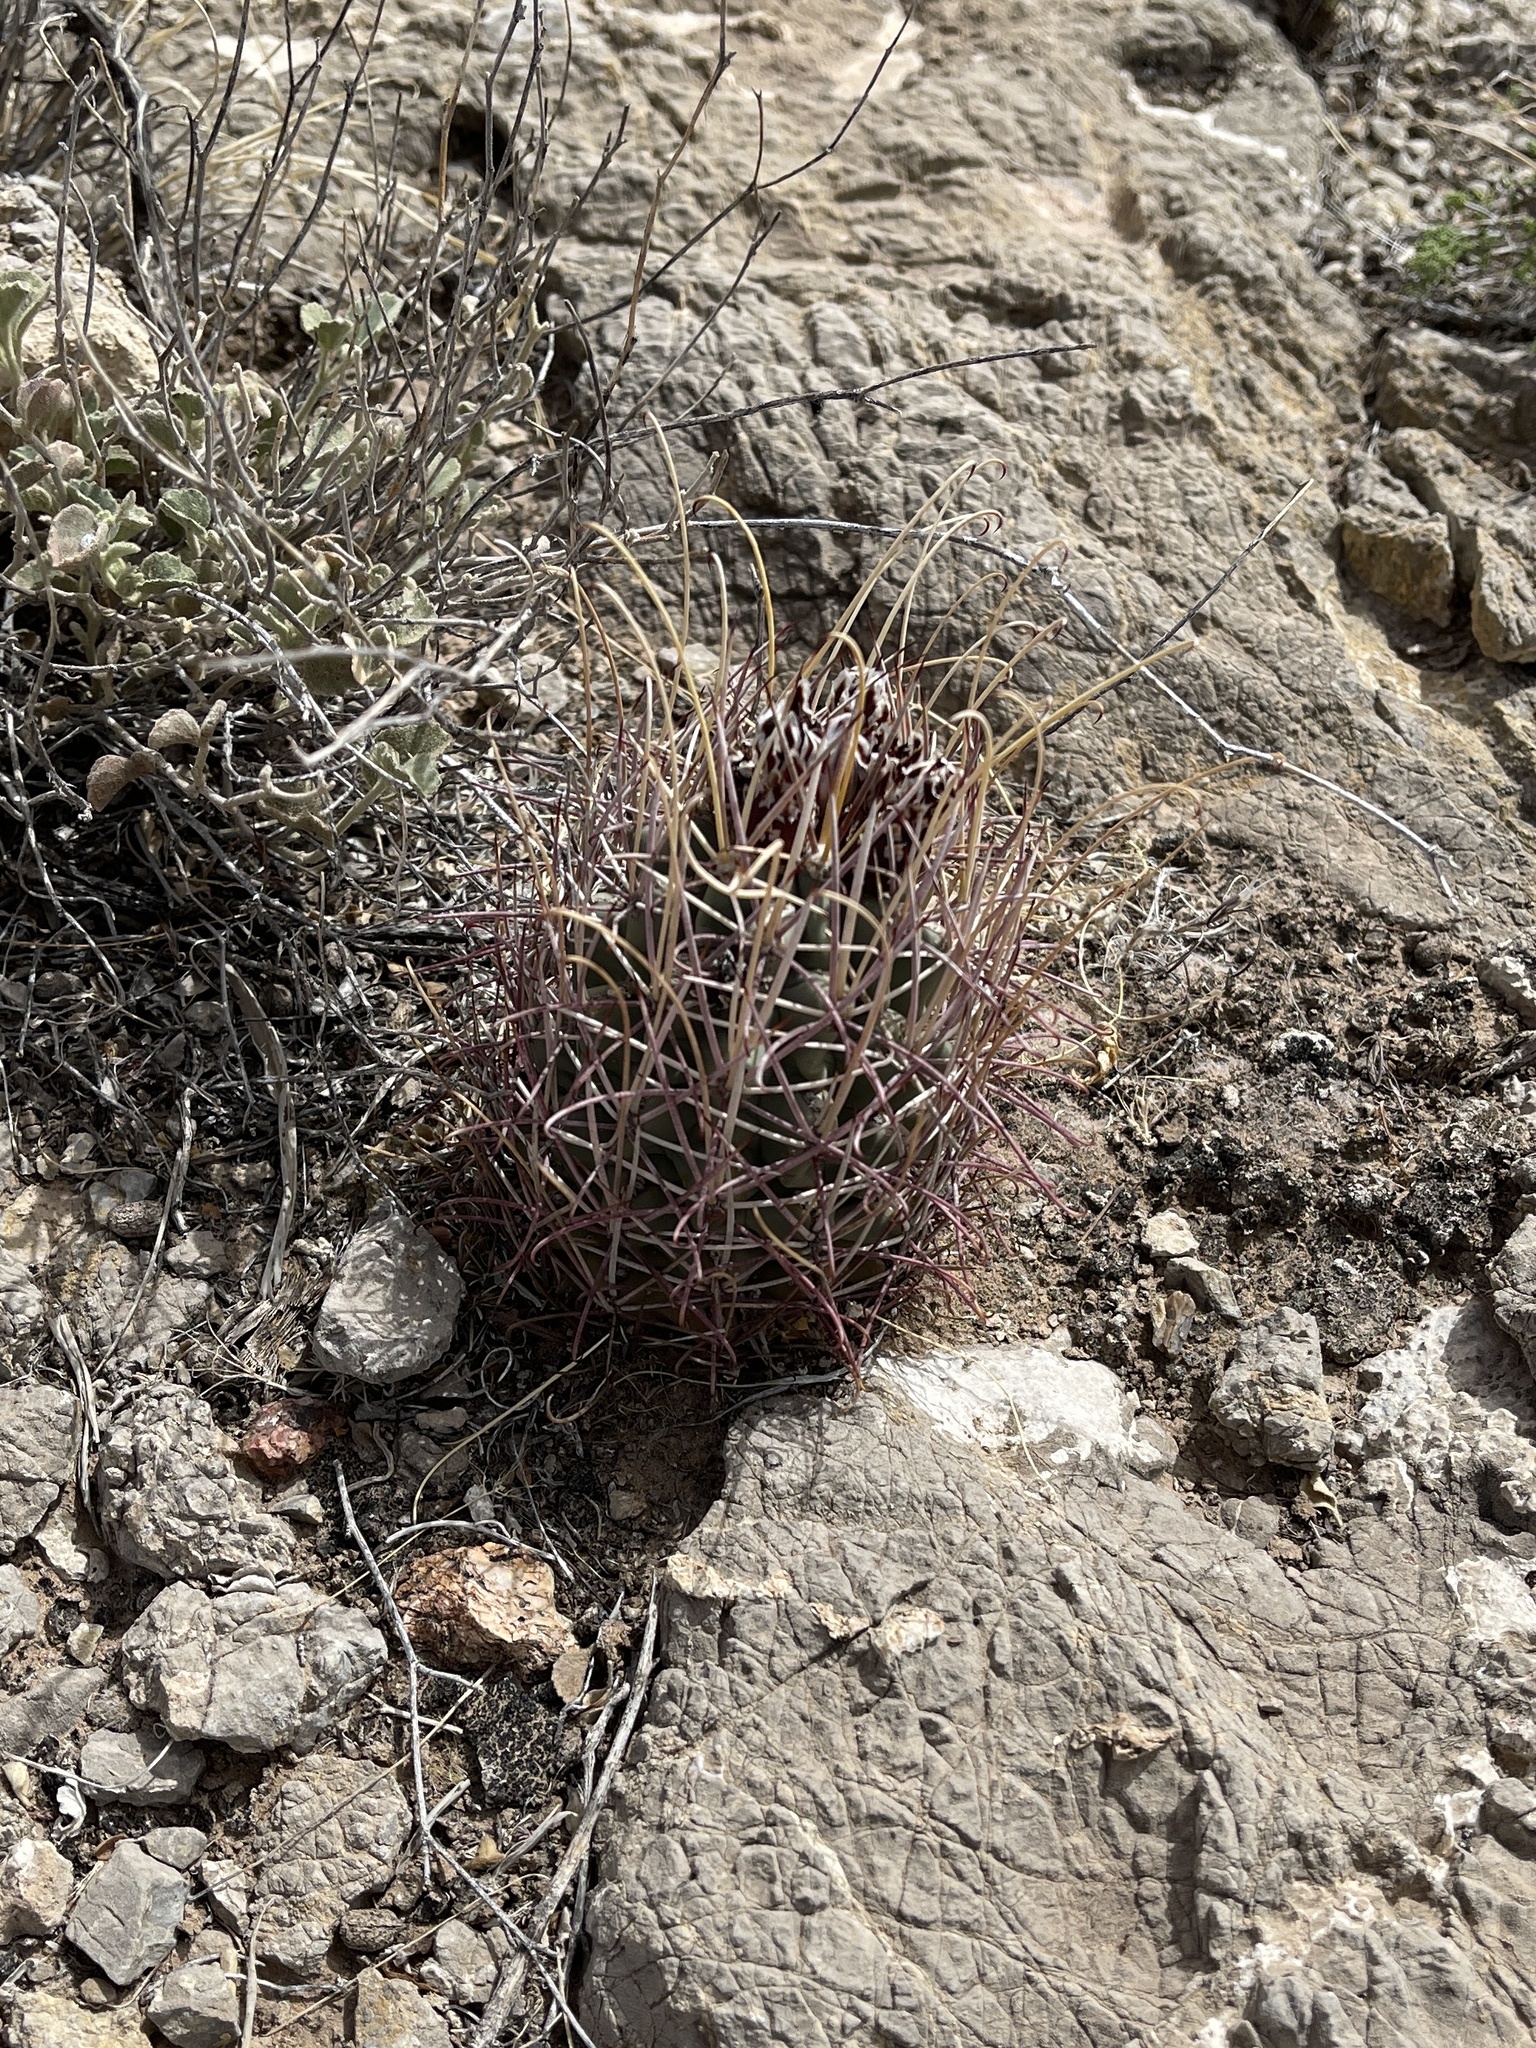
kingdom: Plantae
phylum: Tracheophyta
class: Magnoliopsida
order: Caryophyllales
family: Cactaceae
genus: Ferocactus
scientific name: Ferocactus uncinatus
